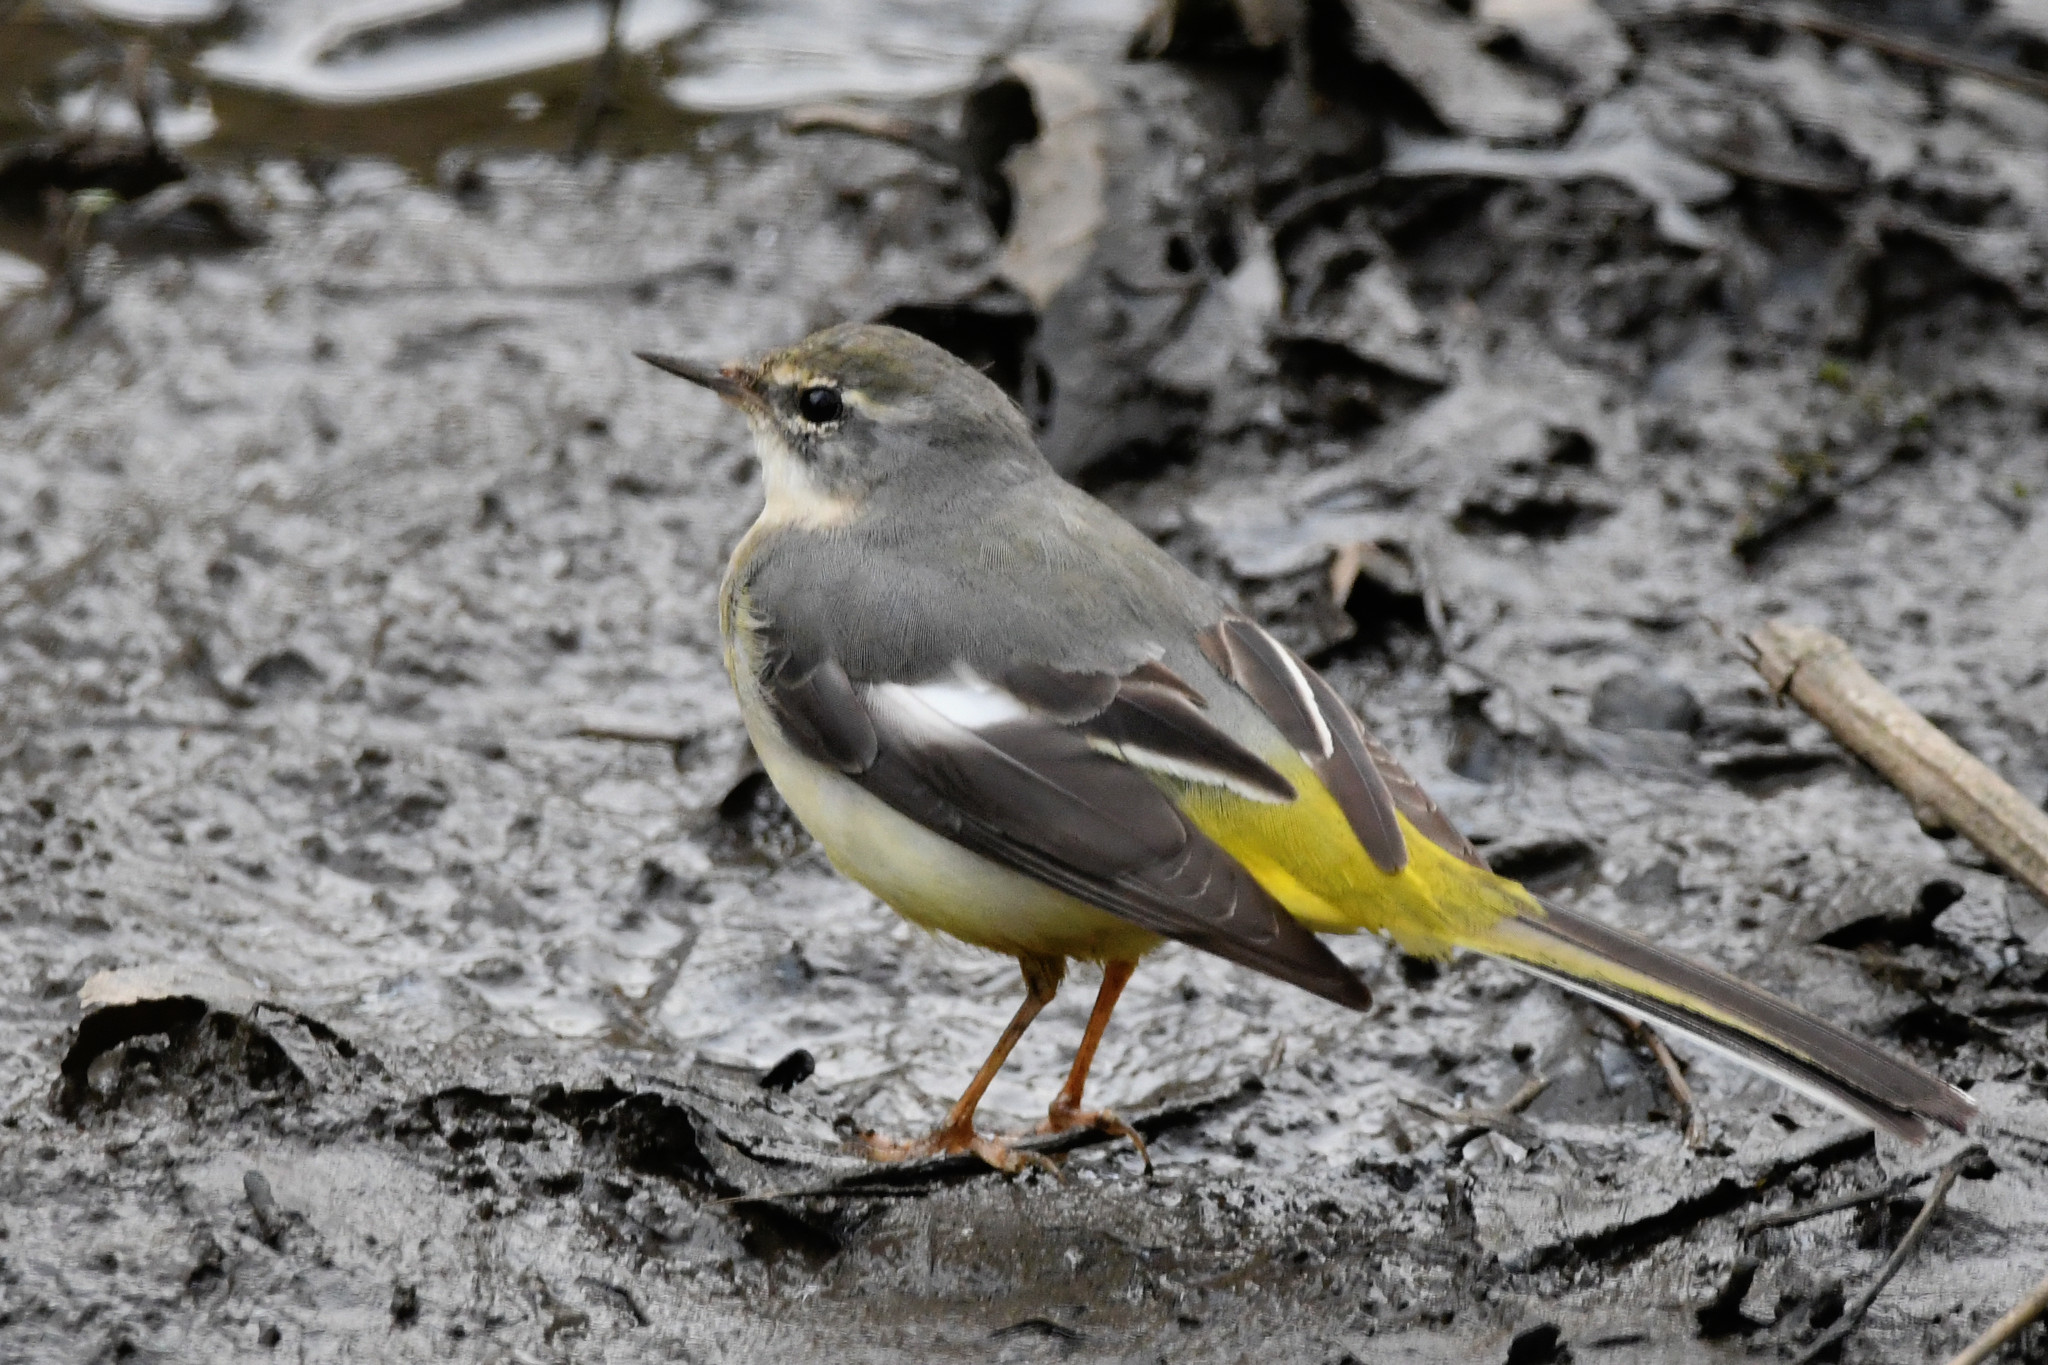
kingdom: Animalia
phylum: Chordata
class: Aves
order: Passeriformes
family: Motacillidae
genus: Motacilla
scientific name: Motacilla cinerea
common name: Grey wagtail
